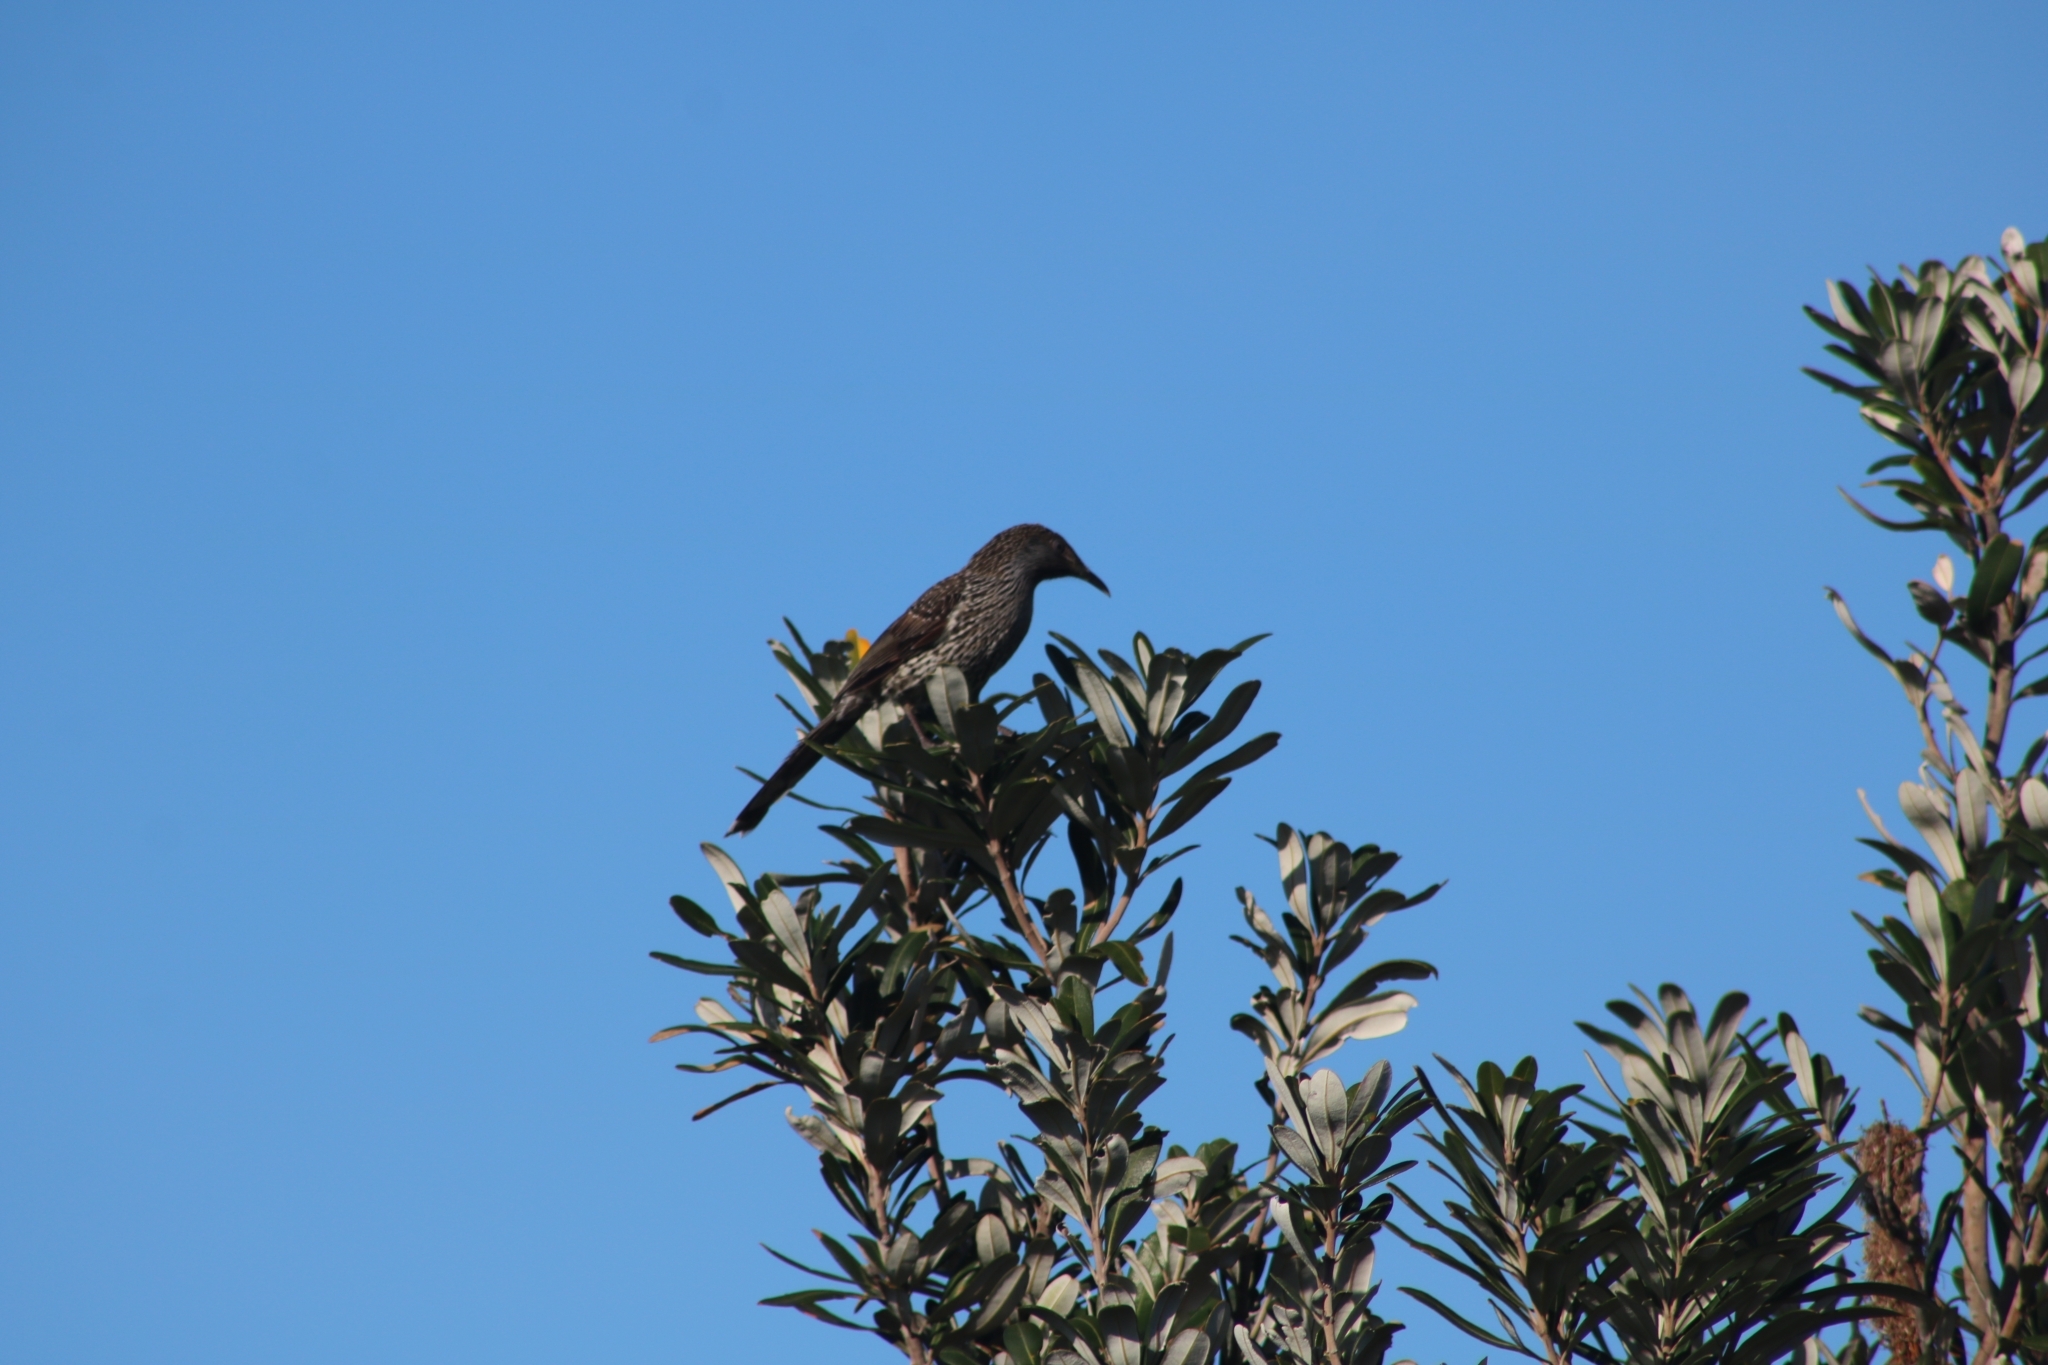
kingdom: Animalia
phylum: Chordata
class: Aves
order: Passeriformes
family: Meliphagidae
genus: Anthochaera
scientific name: Anthochaera chrysoptera
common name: Little wattlebird
